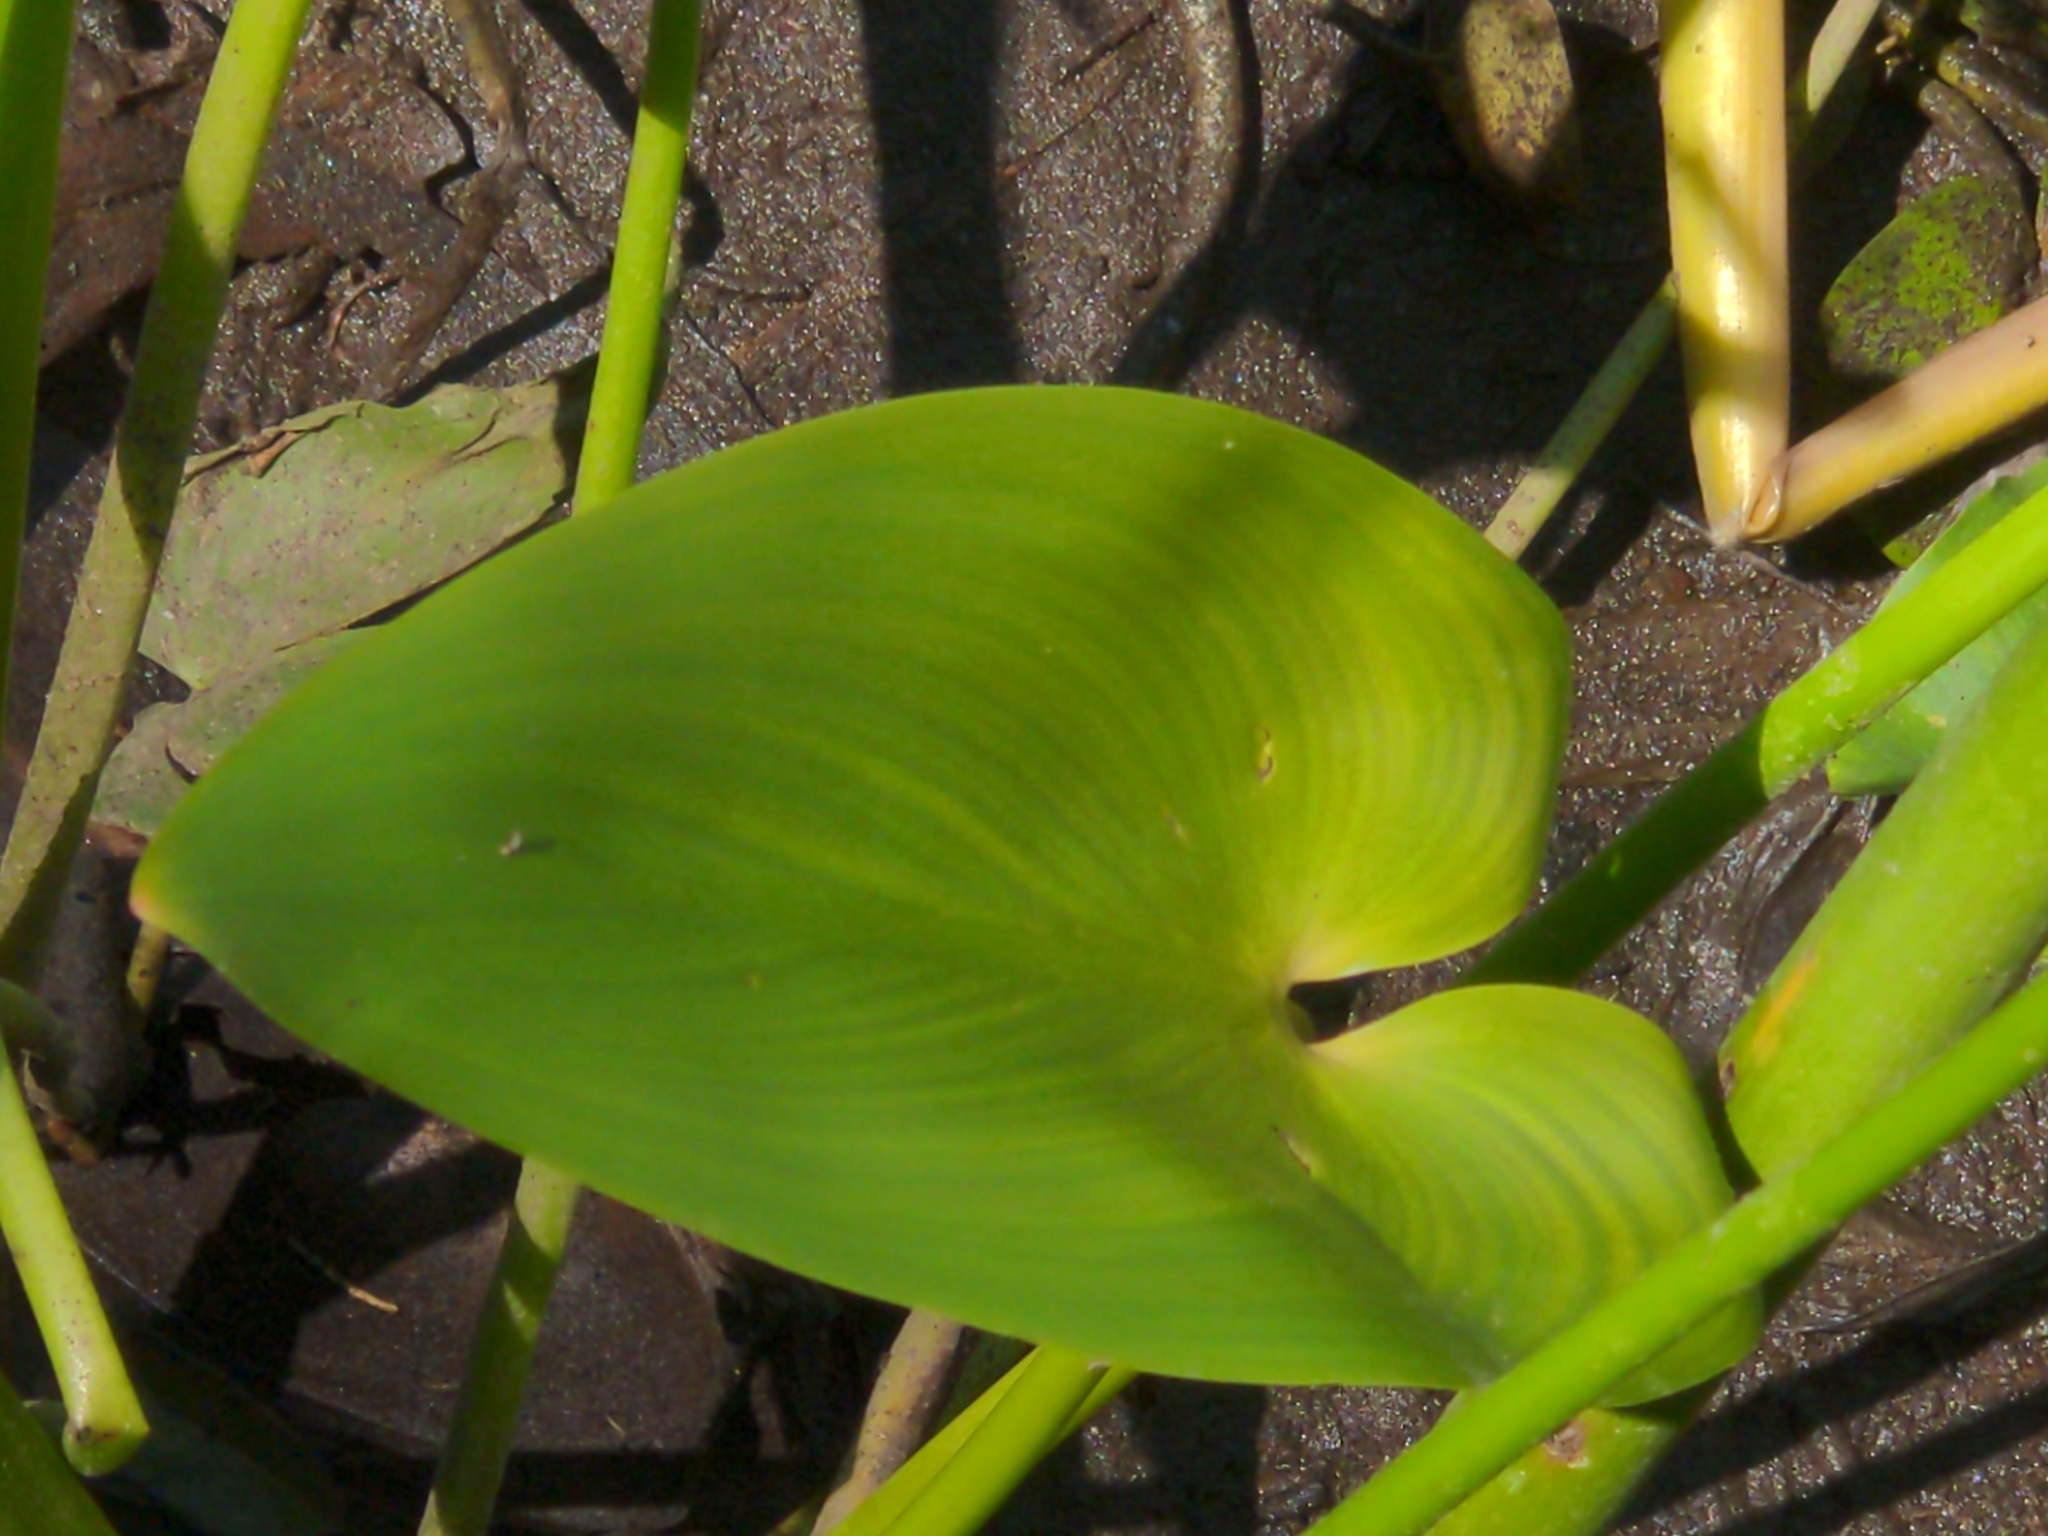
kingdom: Plantae
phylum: Tracheophyta
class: Liliopsida
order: Commelinales
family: Pontederiaceae
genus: Pontederia
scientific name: Pontederia cordata
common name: Pickerelweed
